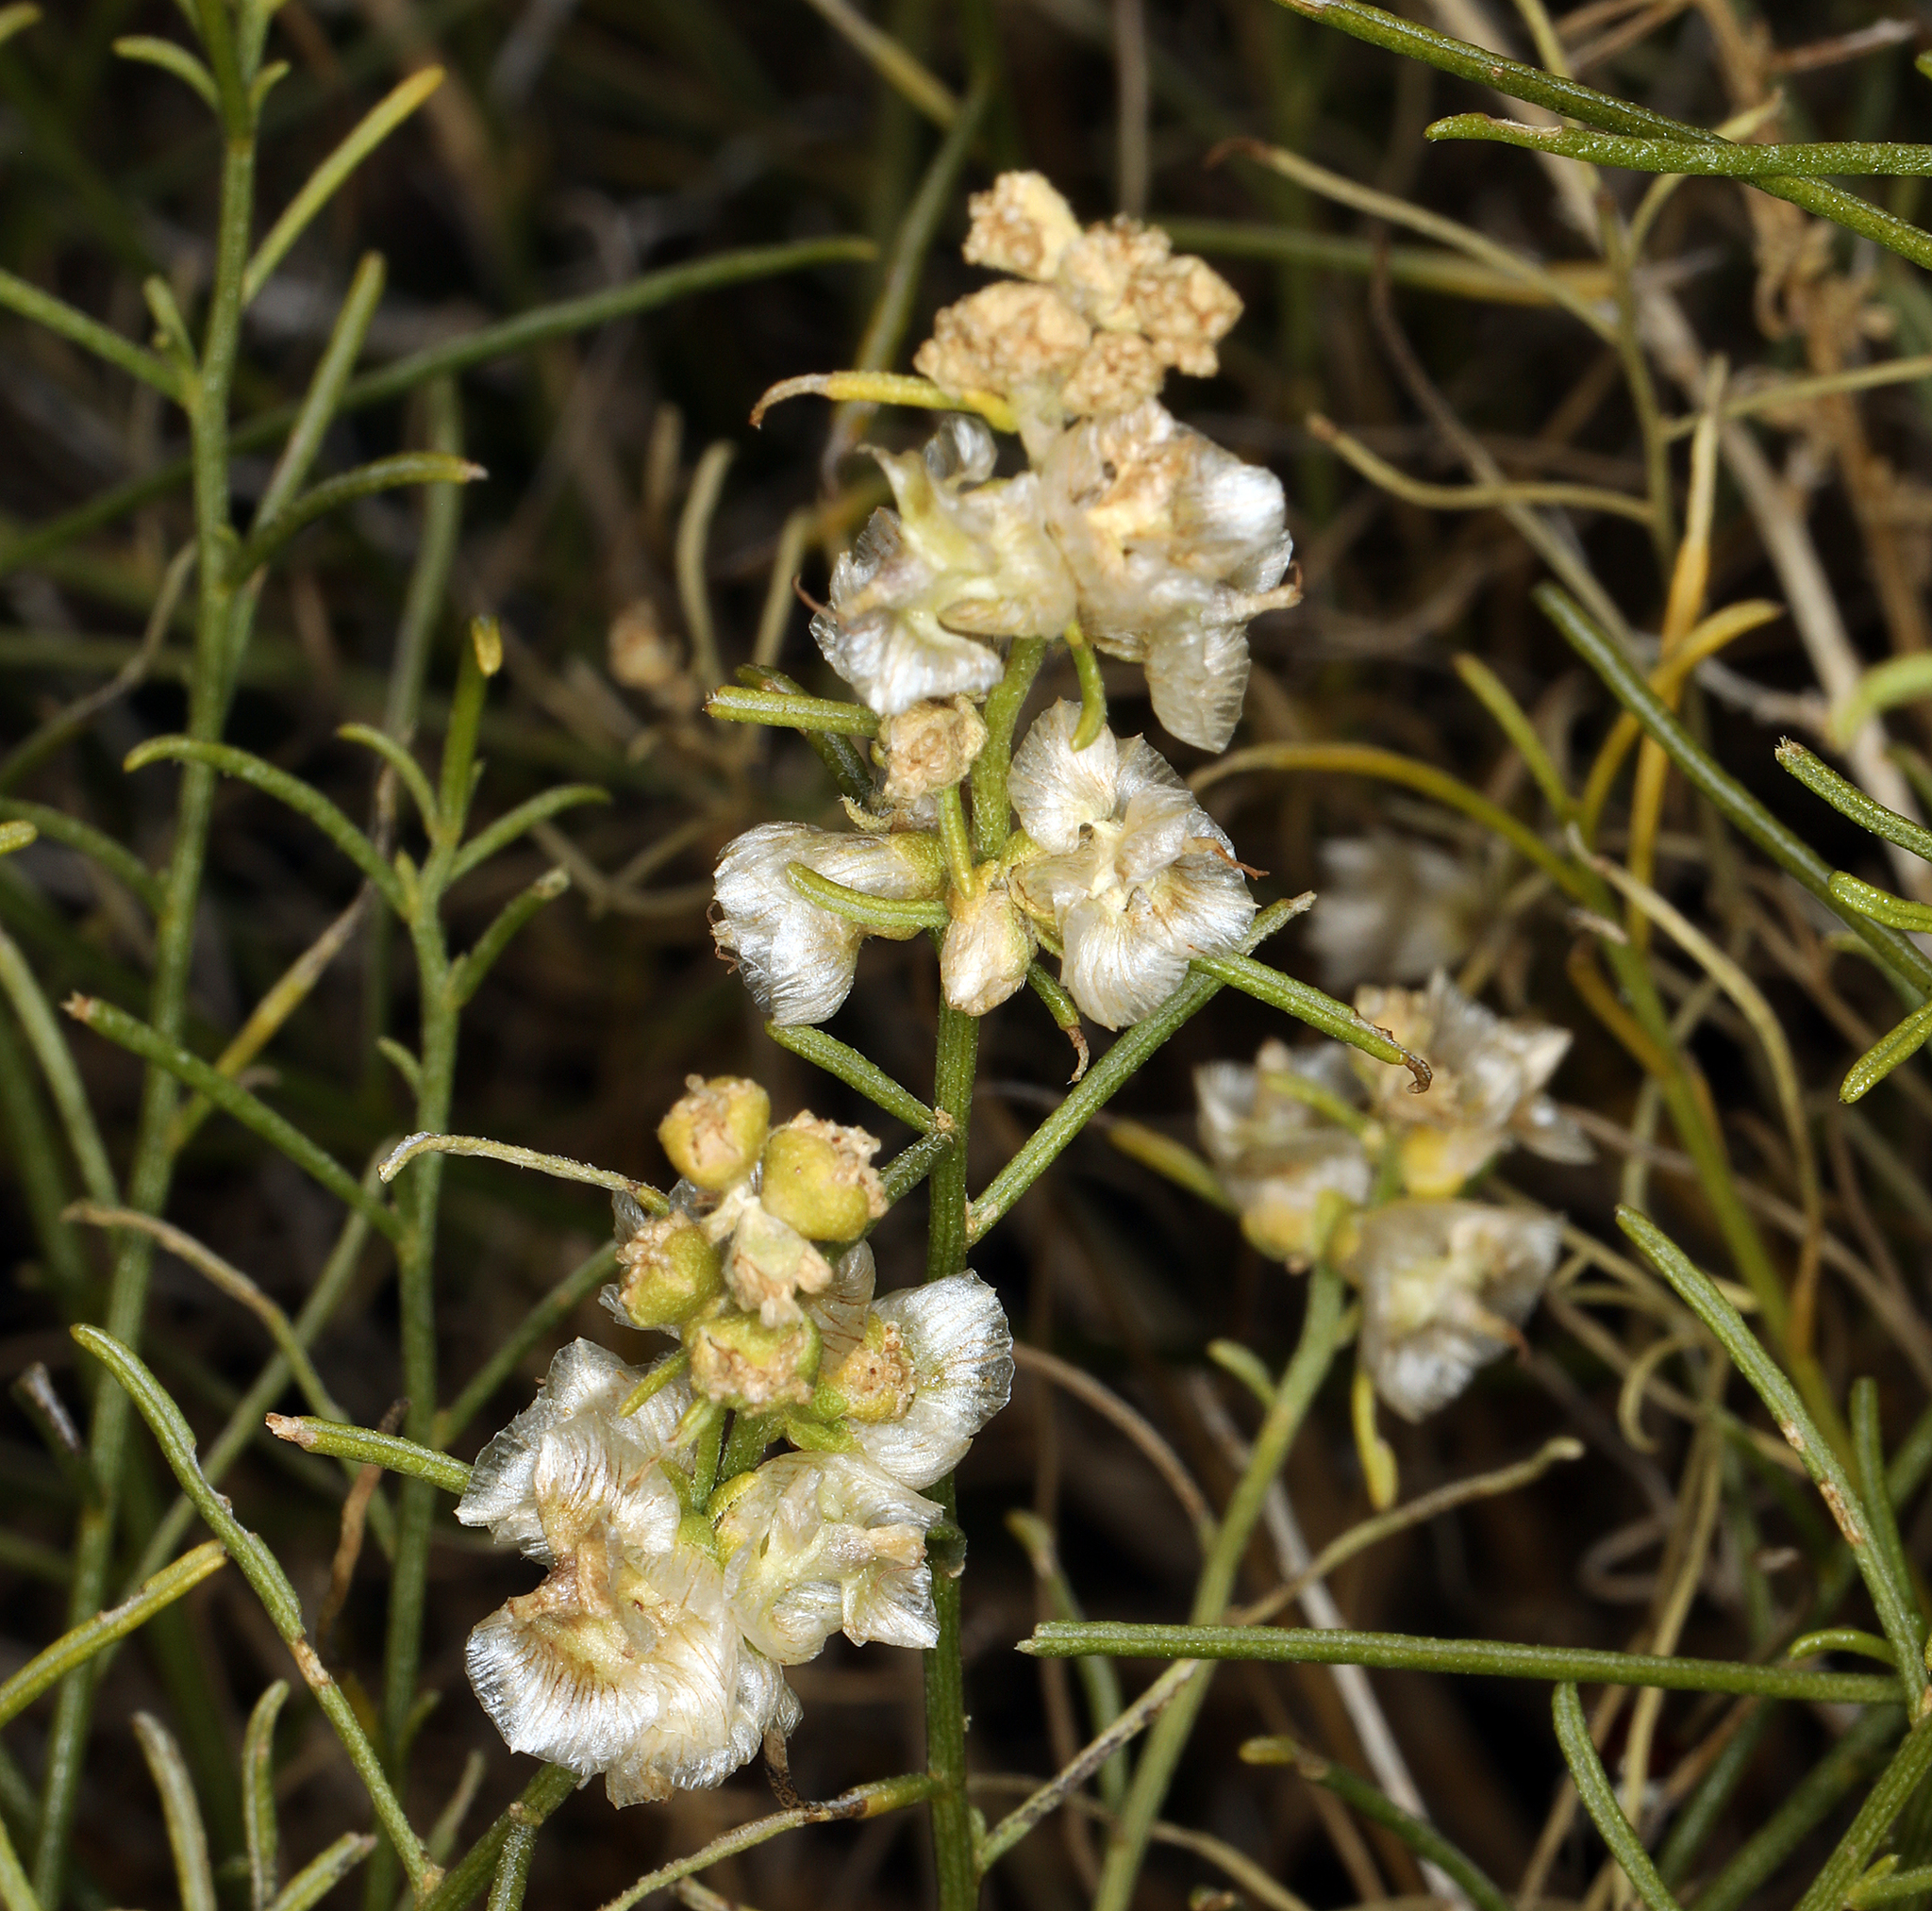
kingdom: Plantae
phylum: Tracheophyta
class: Magnoliopsida
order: Asterales
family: Asteraceae
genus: Ambrosia
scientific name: Ambrosia salsola
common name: Burrobrush
